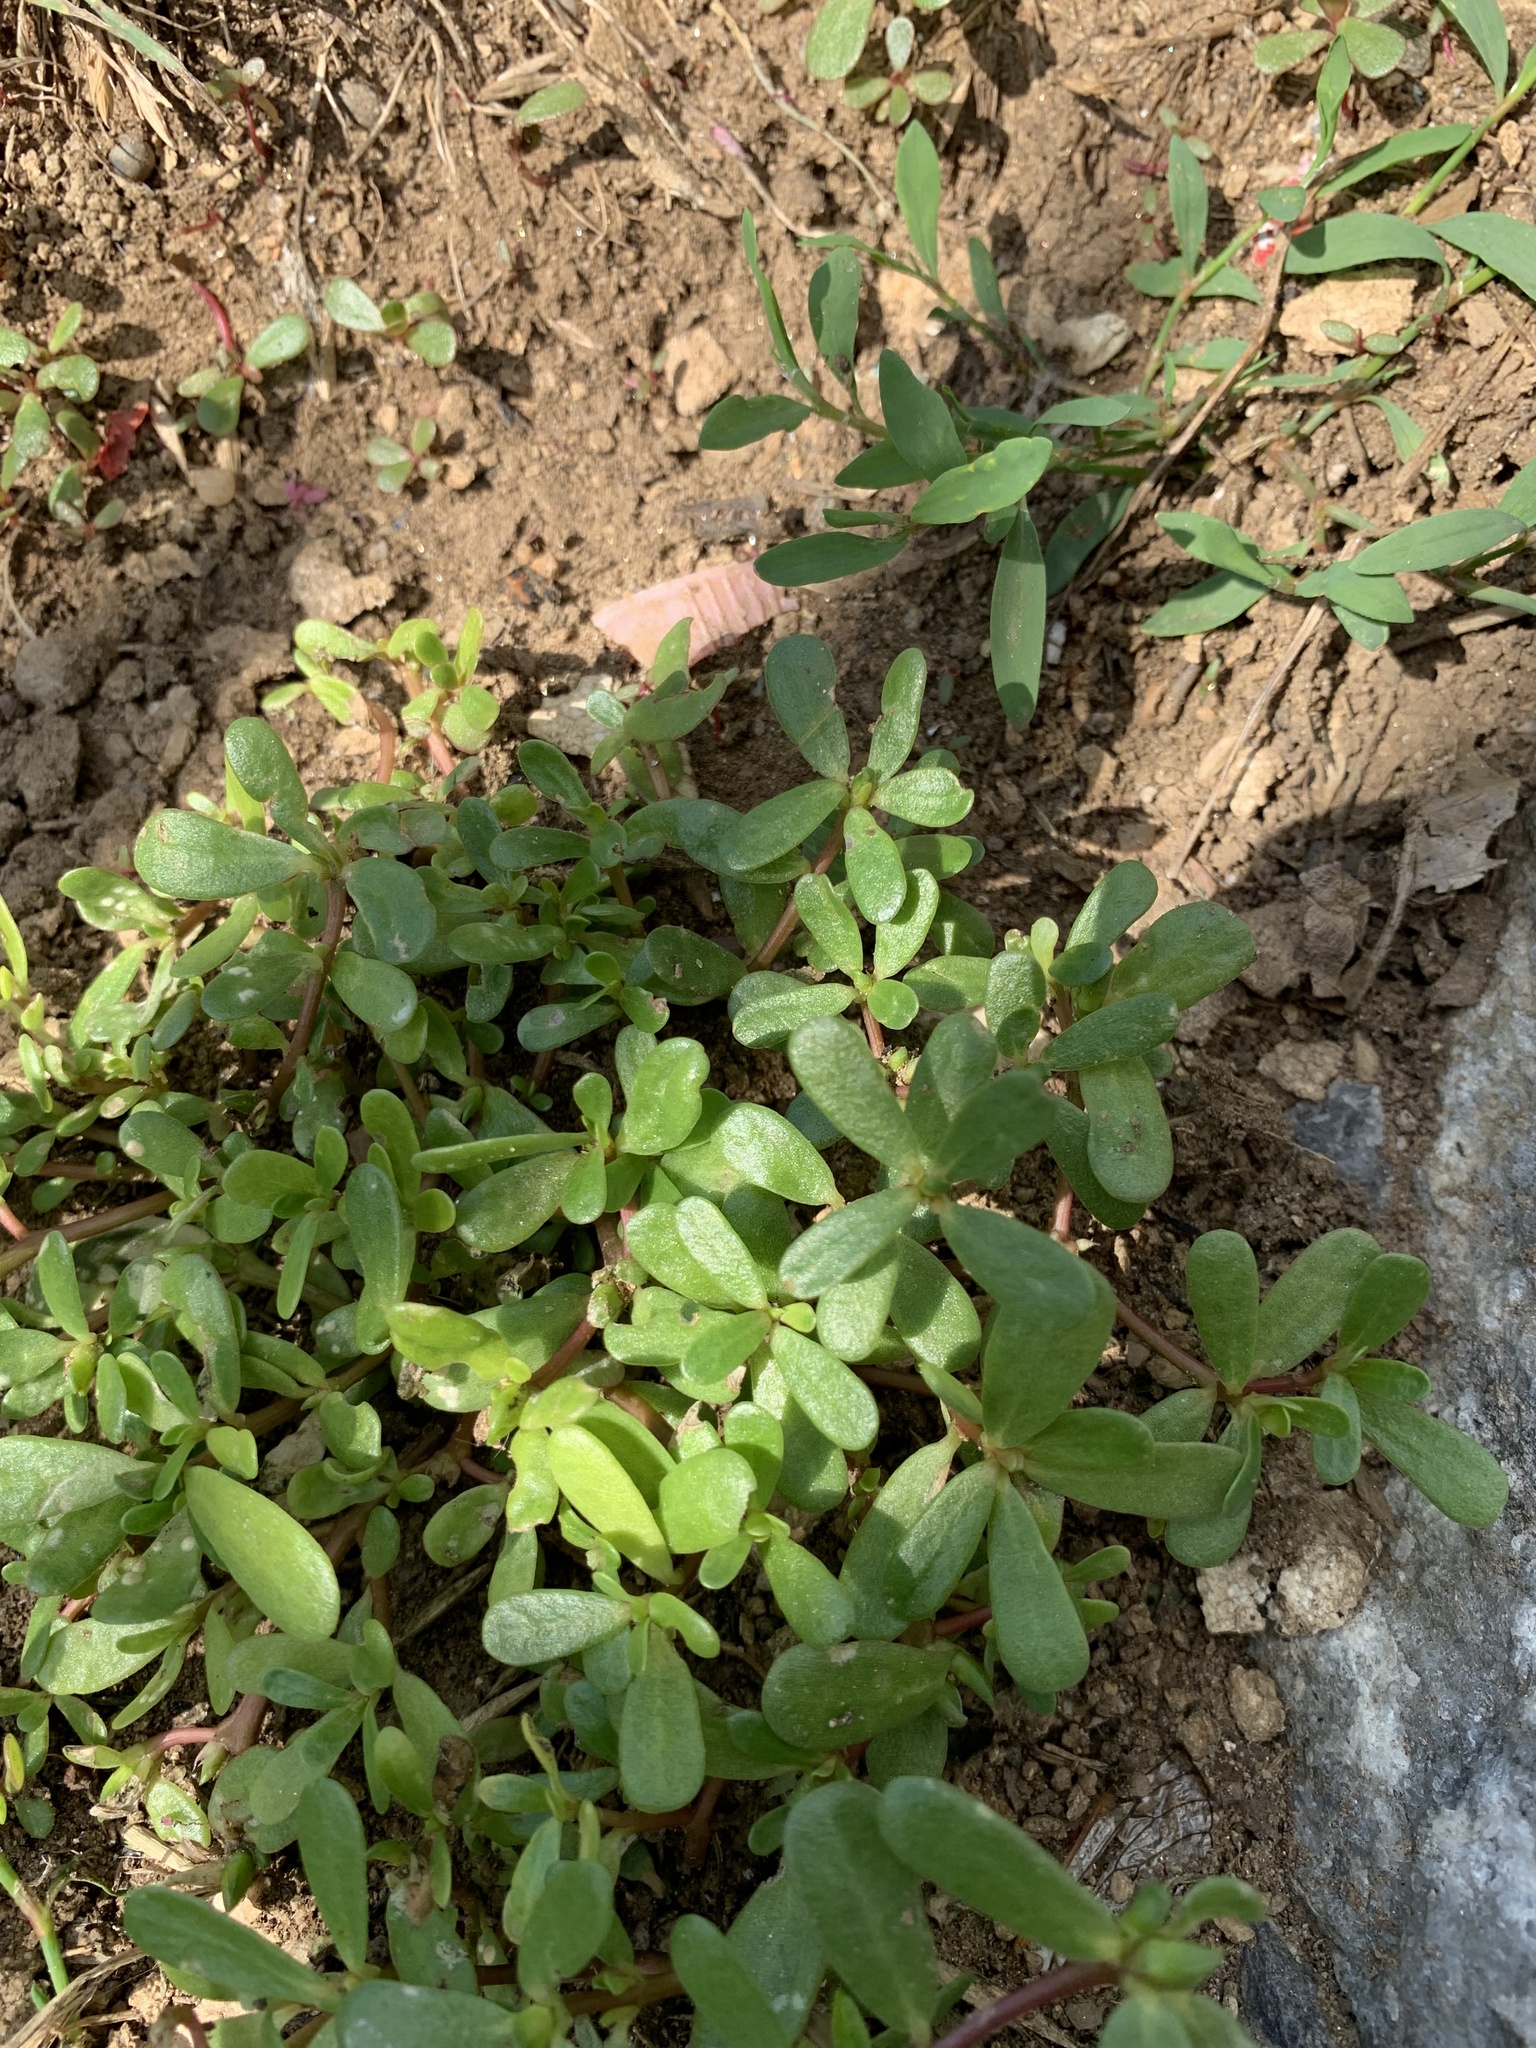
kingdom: Plantae
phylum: Tracheophyta
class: Magnoliopsida
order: Caryophyllales
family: Portulacaceae
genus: Portulaca
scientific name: Portulaca oleracea
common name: Common purslane
